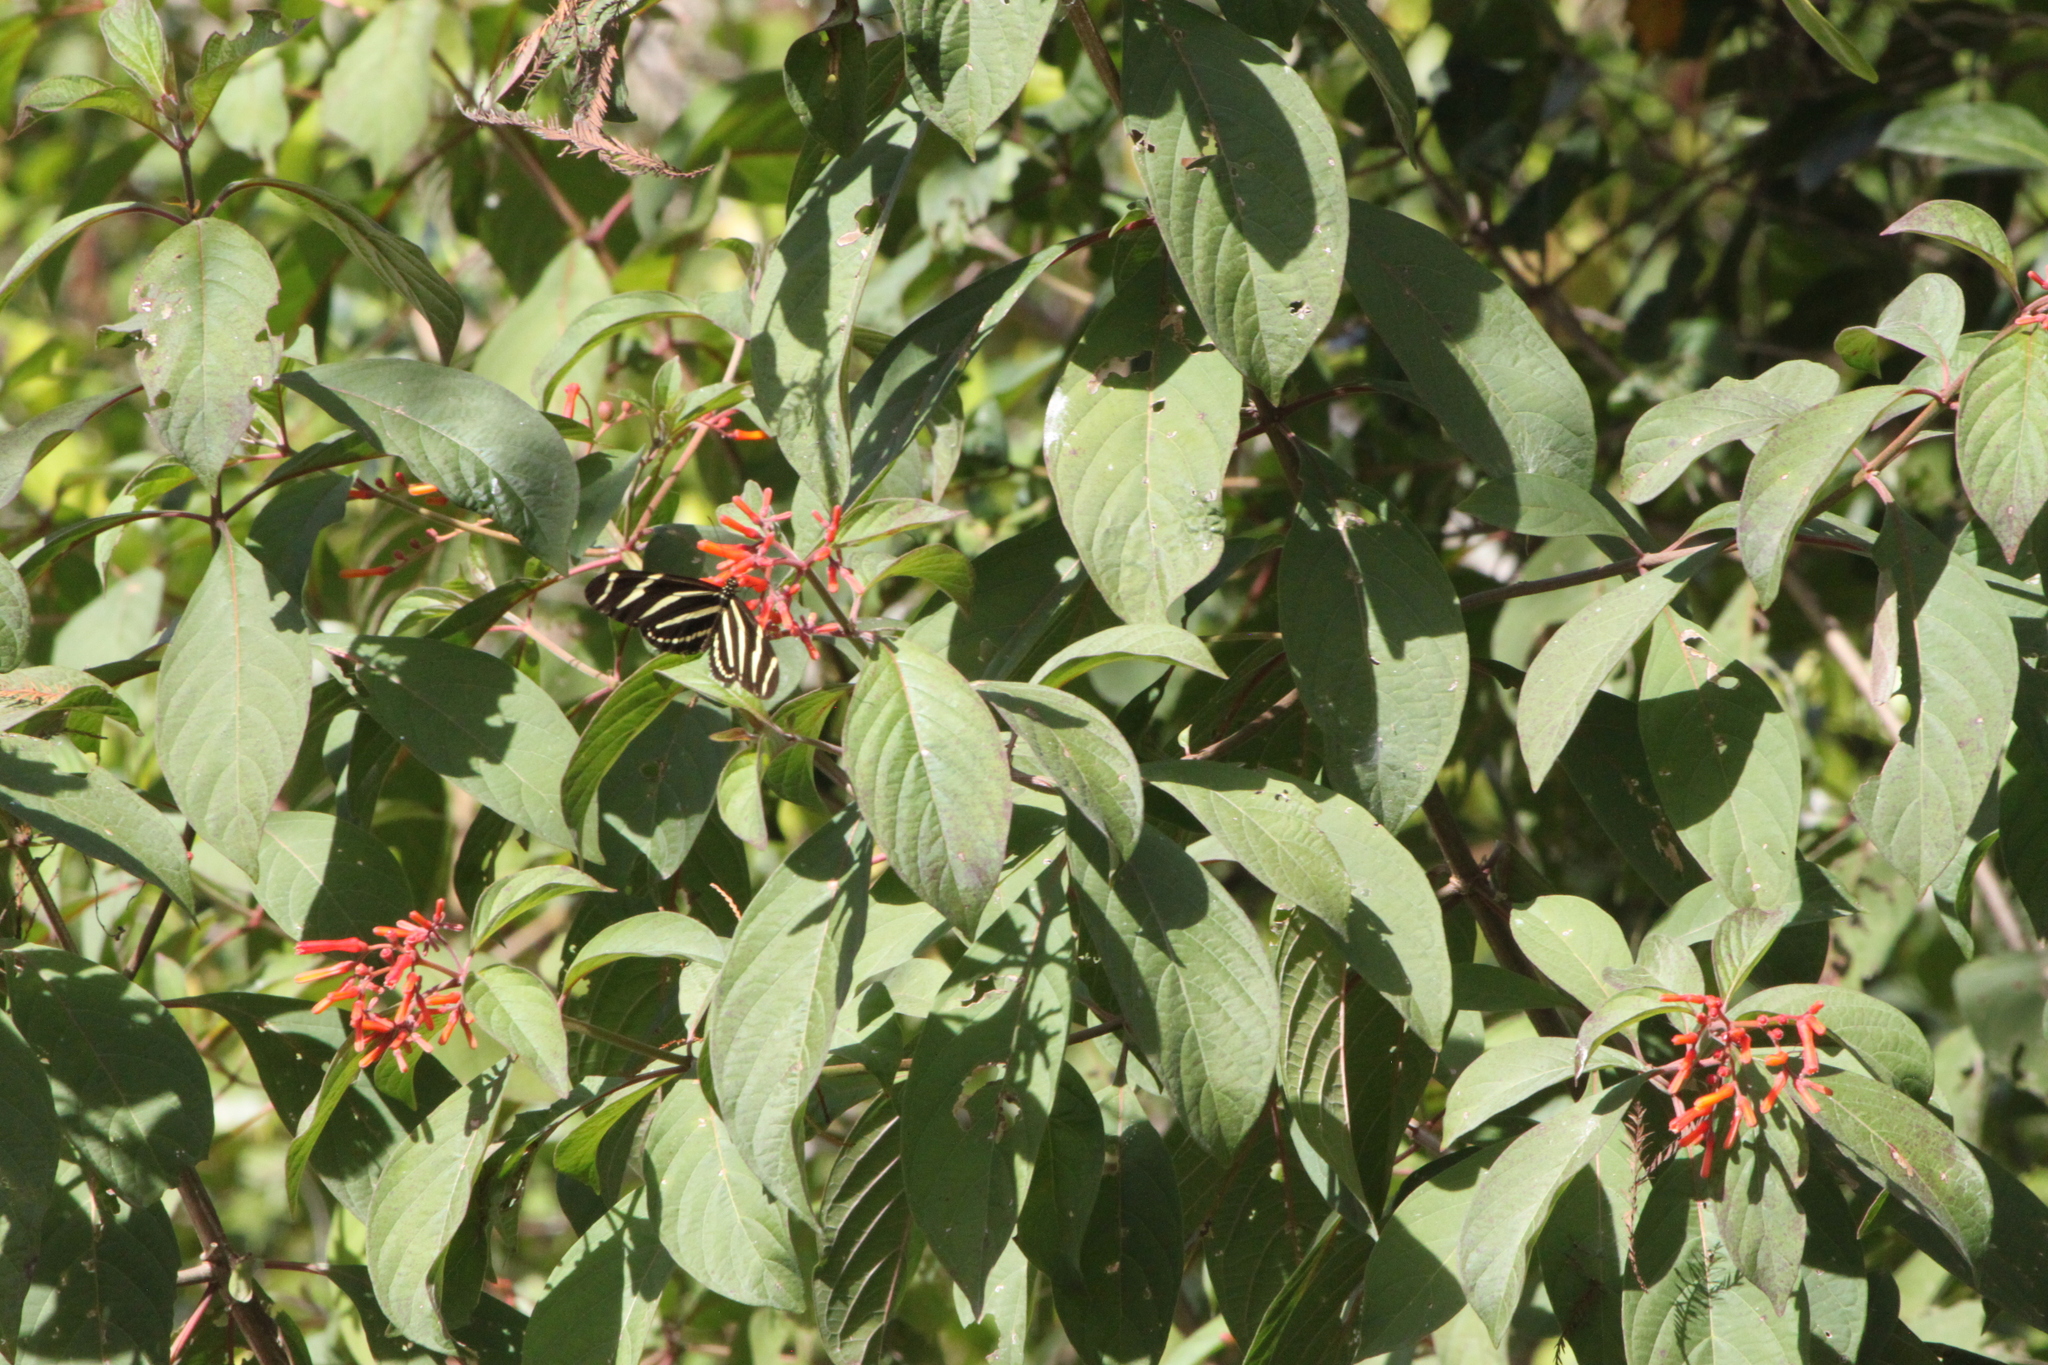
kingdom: Animalia
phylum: Arthropoda
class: Insecta
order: Lepidoptera
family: Nymphalidae
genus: Heliconius
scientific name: Heliconius charithonia
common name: Zebra long wing
